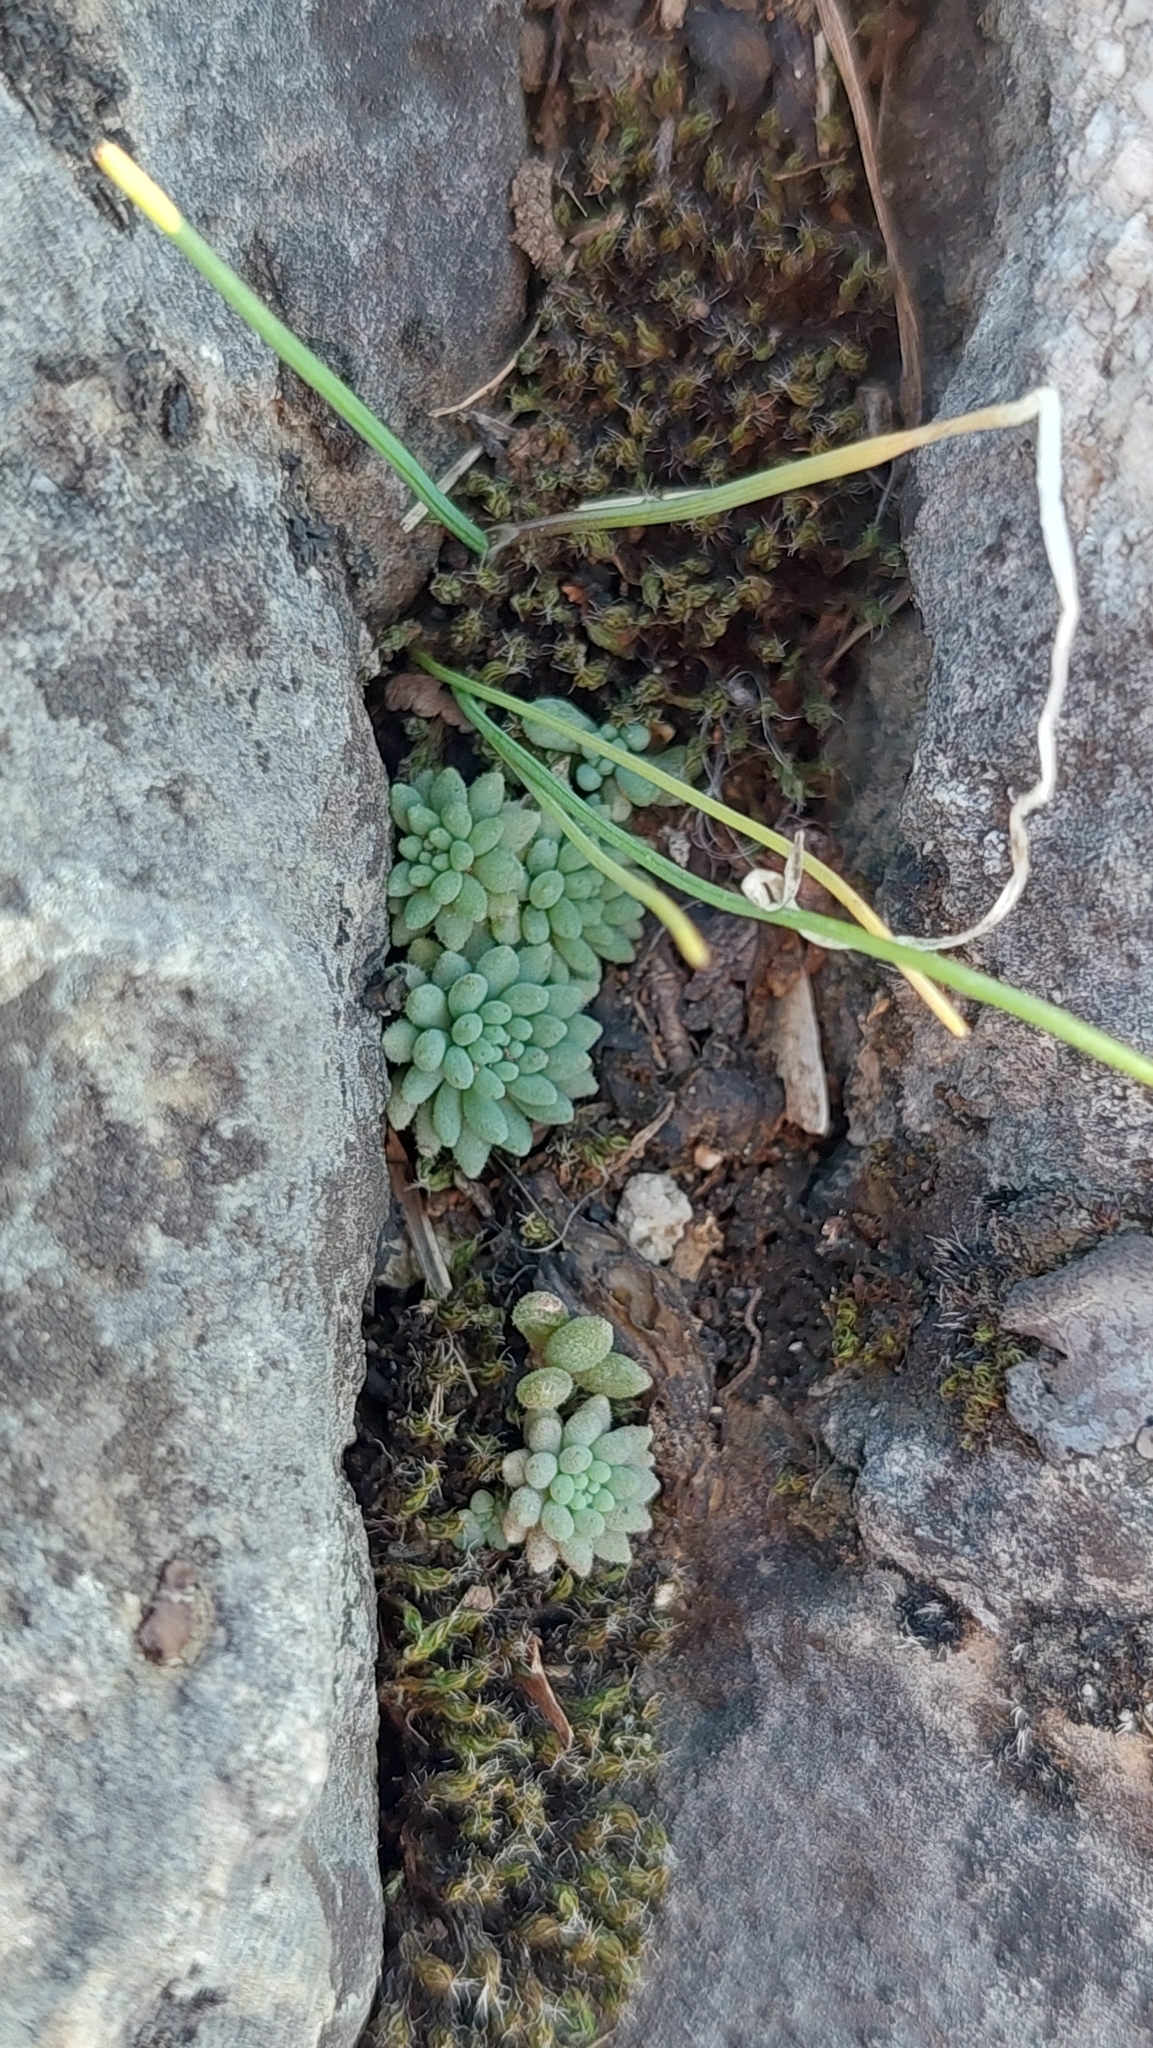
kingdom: Plantae
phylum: Tracheophyta
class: Magnoliopsida
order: Saxifragales
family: Crassulaceae
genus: Sedum
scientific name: Sedum hispanicum
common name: Spanish stonecrop
